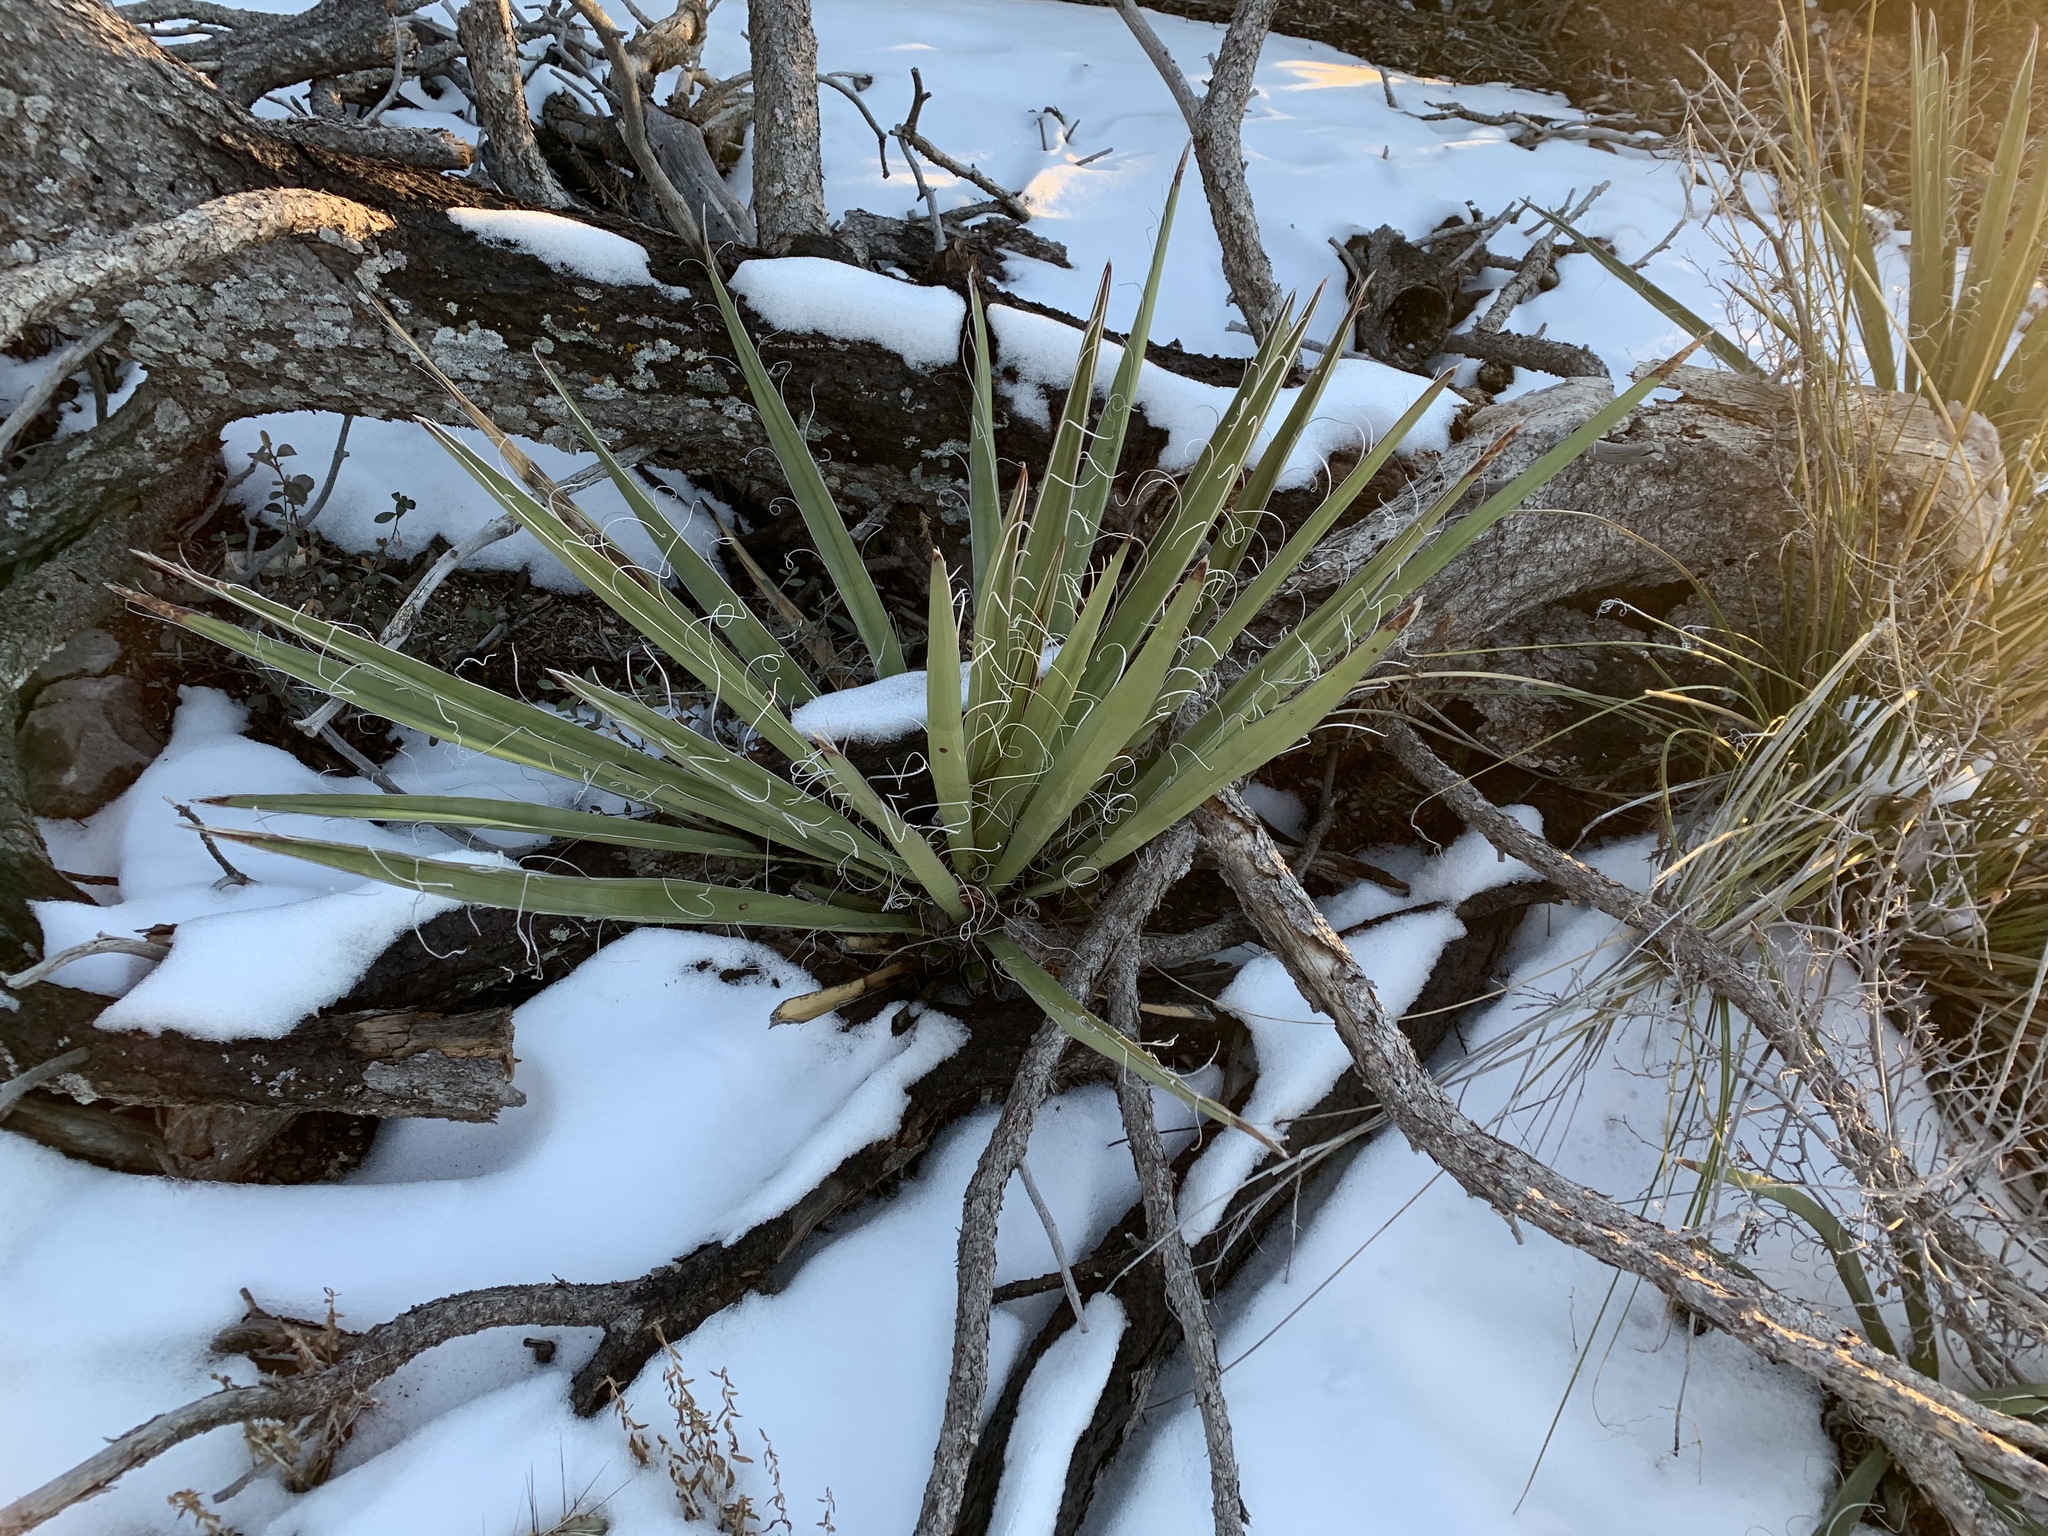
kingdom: Plantae
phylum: Tracheophyta
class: Liliopsida
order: Asparagales
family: Asparagaceae
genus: Yucca
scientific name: Yucca baccata
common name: Banana yucca
